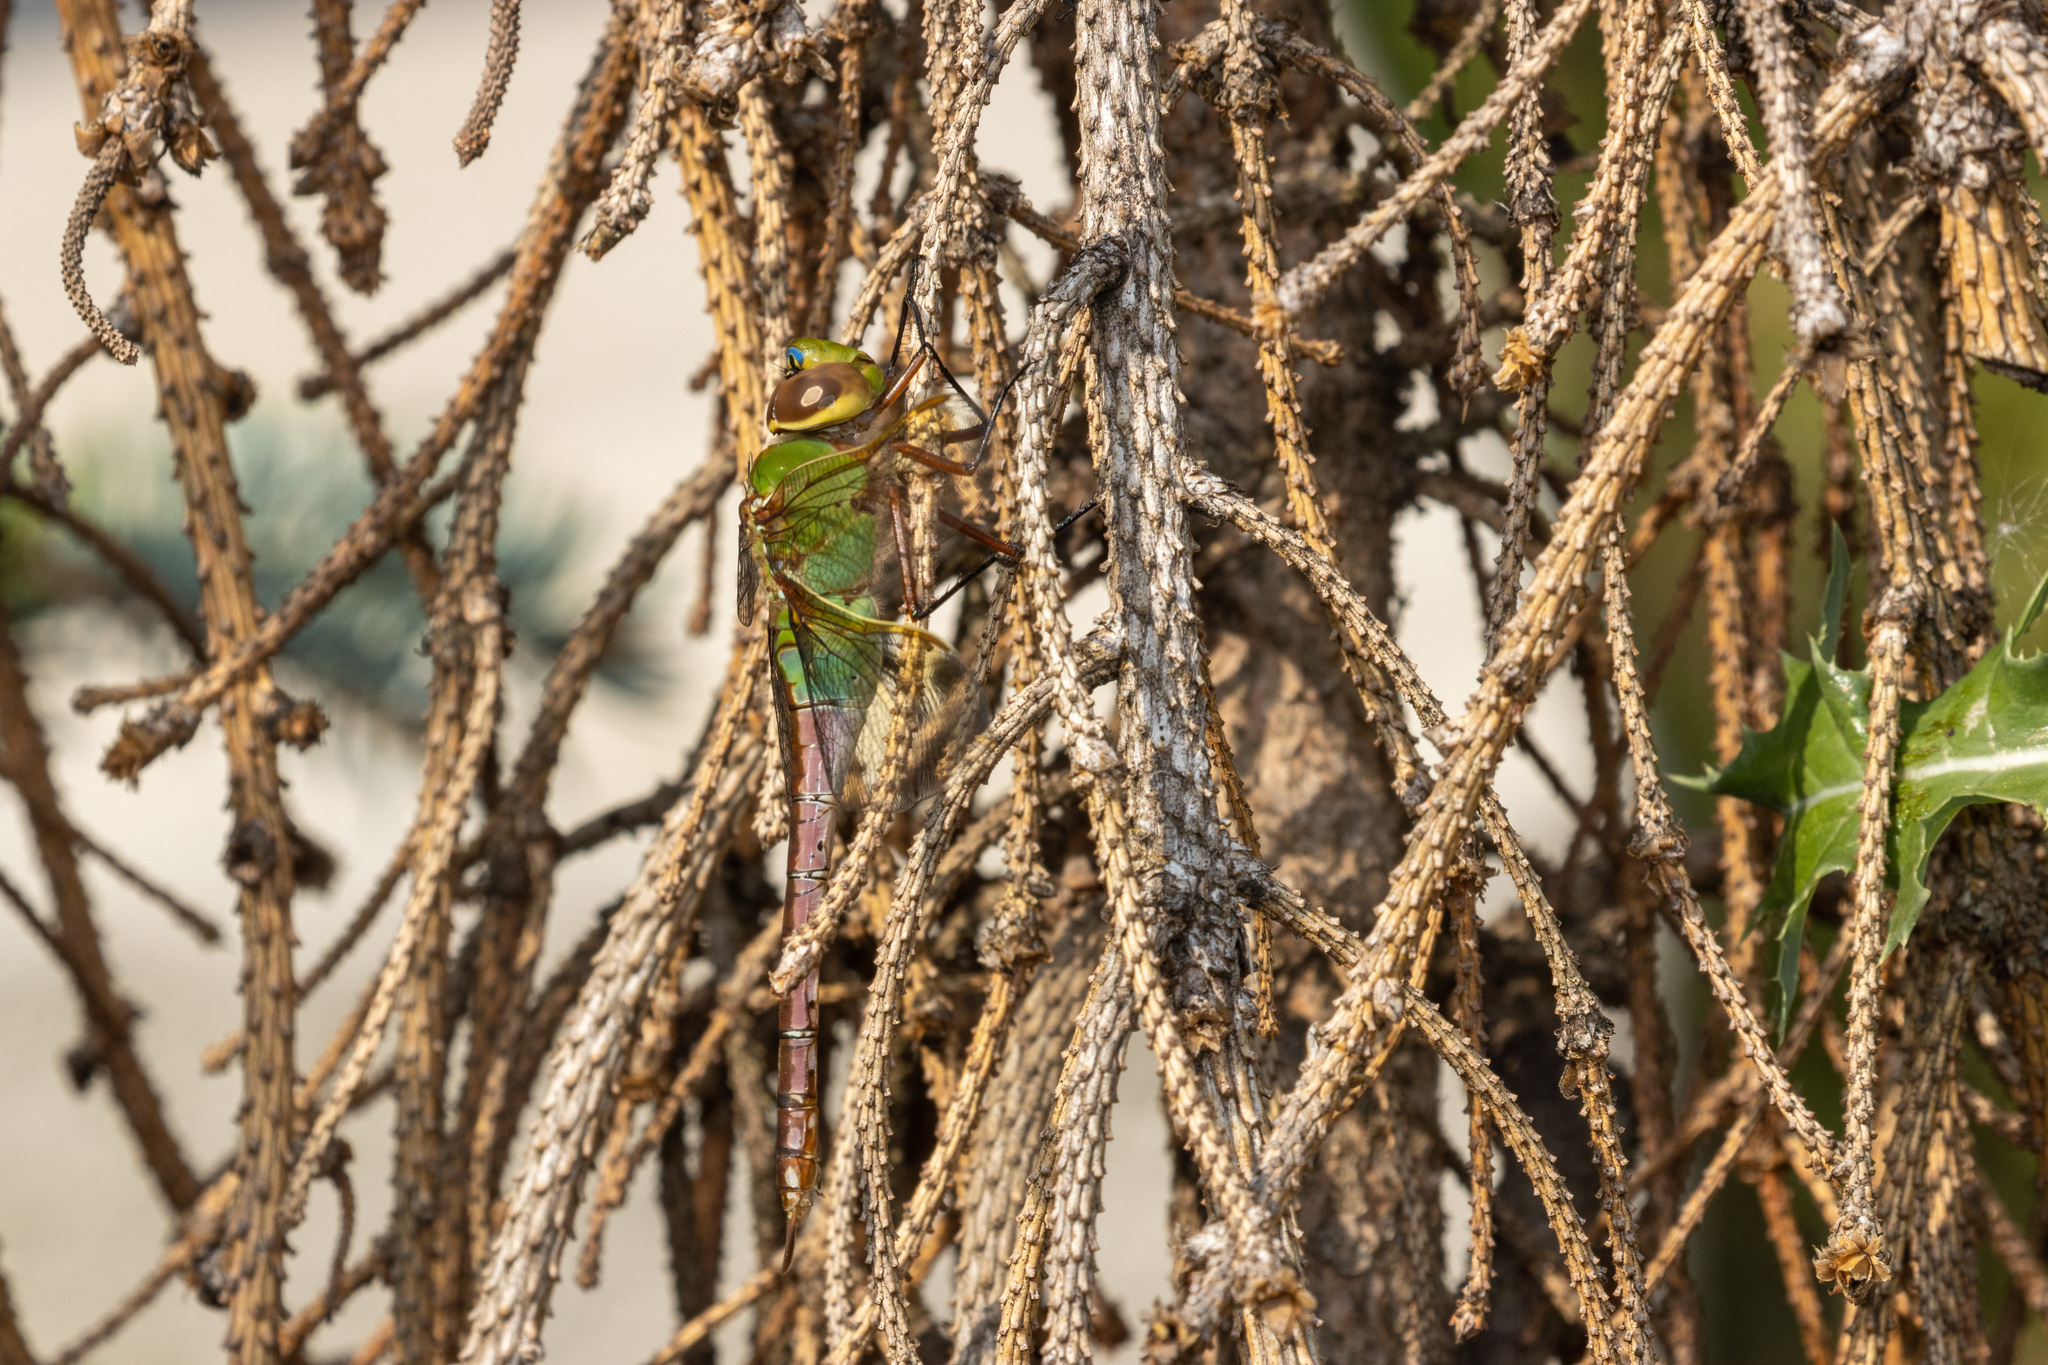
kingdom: Animalia
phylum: Arthropoda
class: Insecta
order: Odonata
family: Aeshnidae
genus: Anax
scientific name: Anax junius
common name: Common green darner
